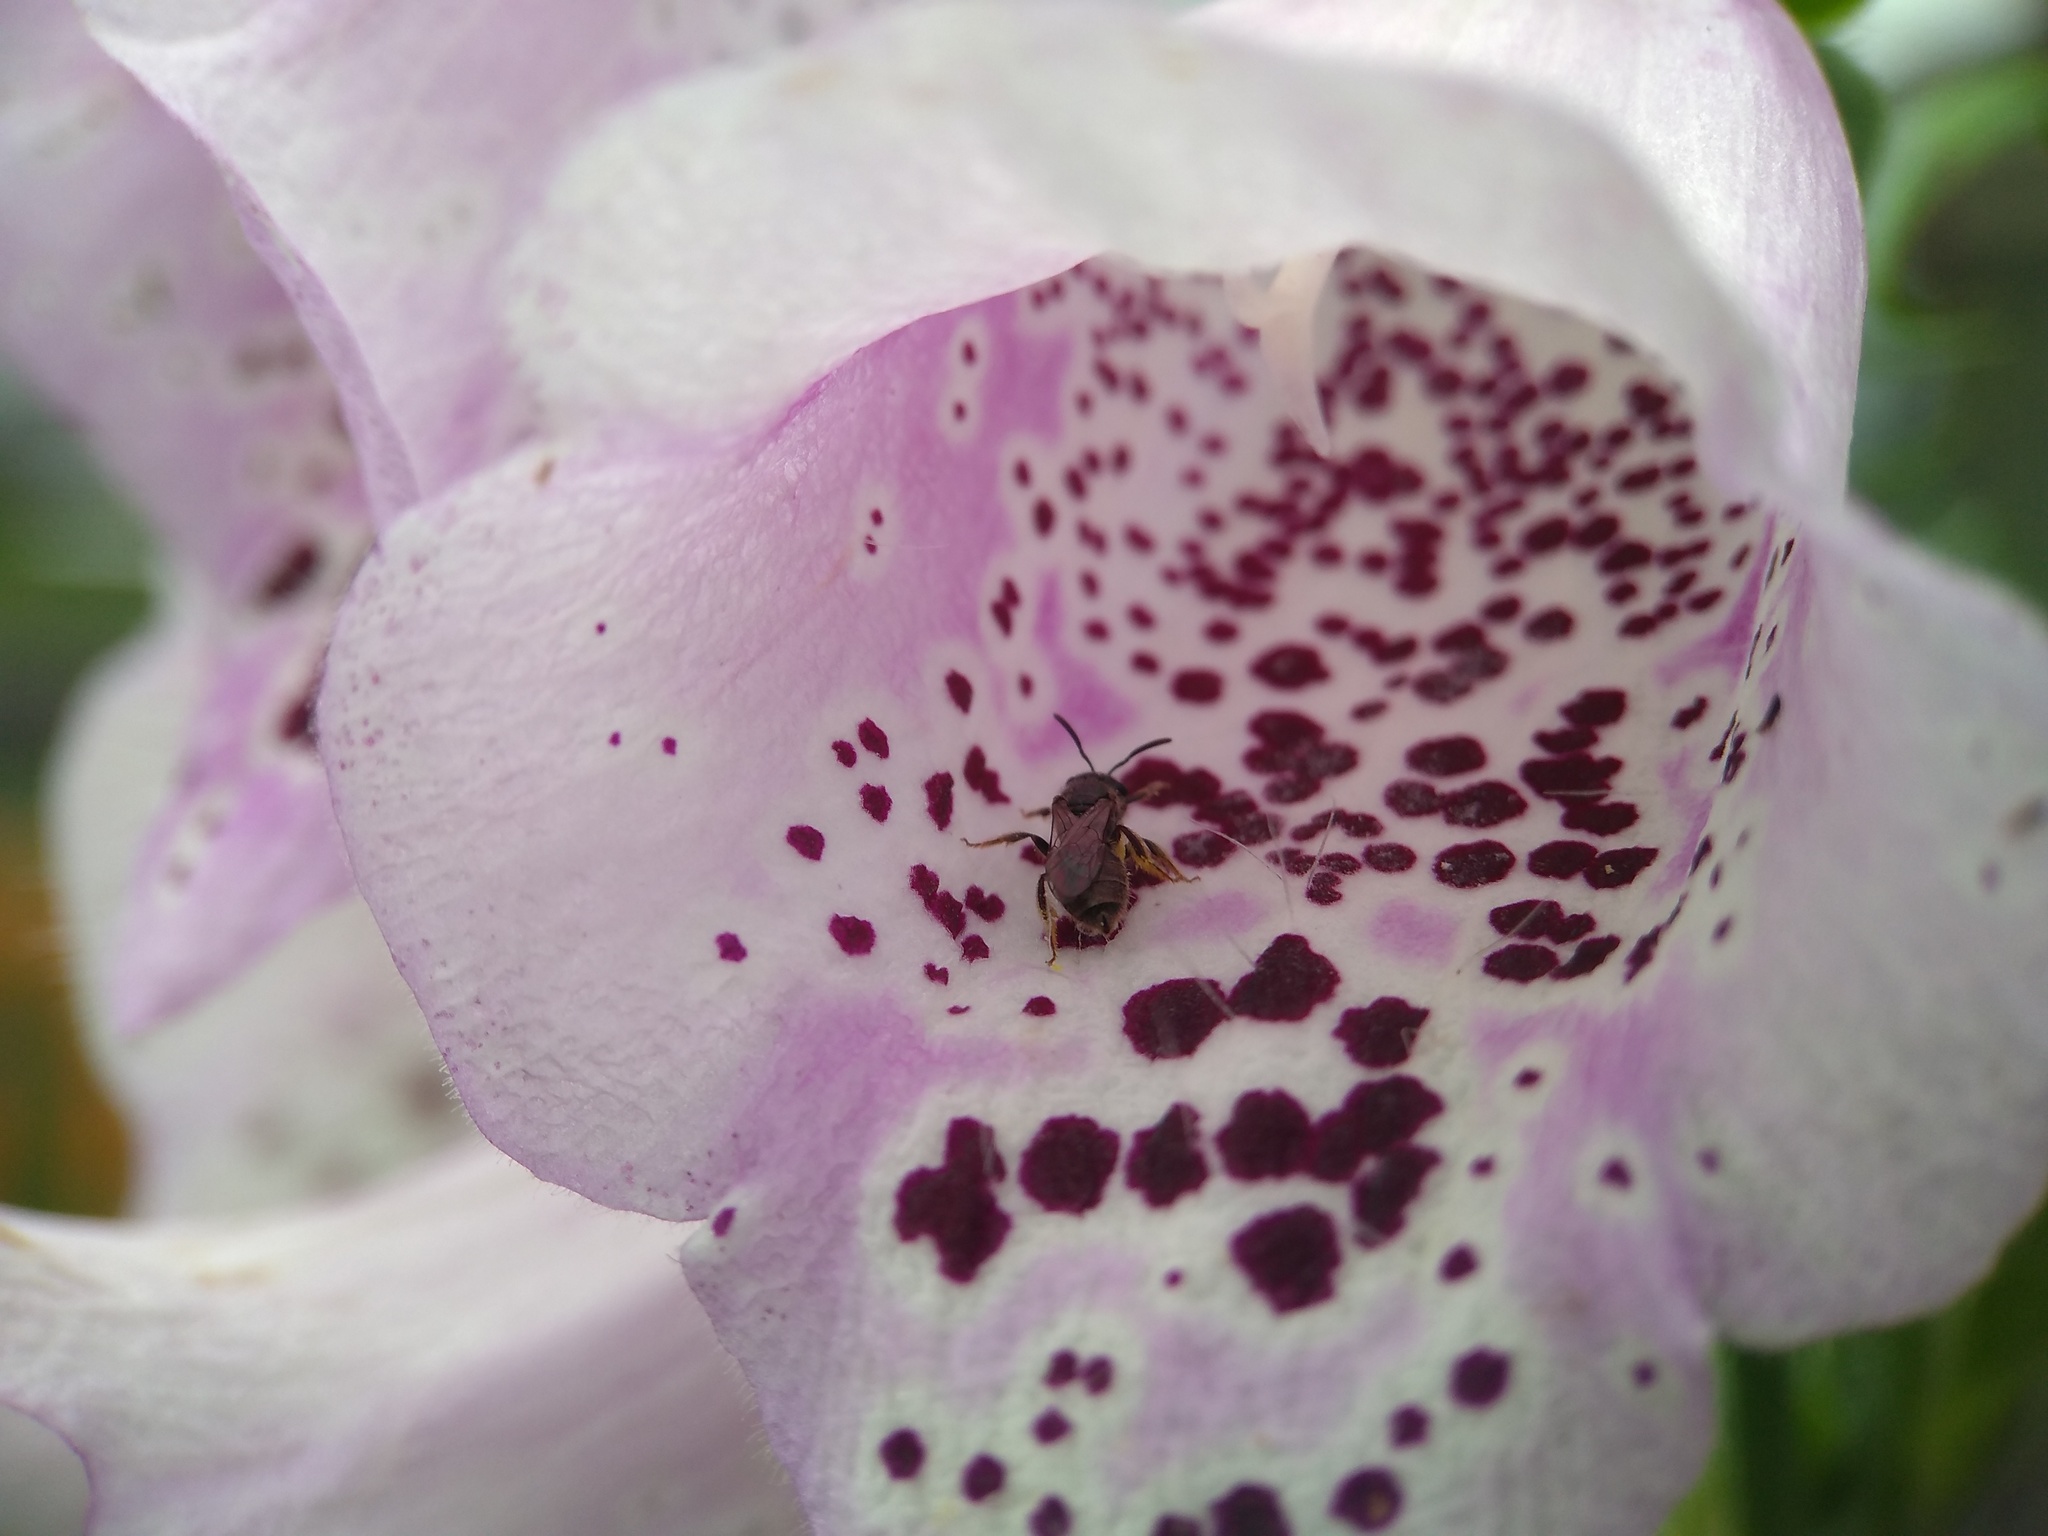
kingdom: Animalia
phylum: Arthropoda
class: Insecta
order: Hymenoptera
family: Halictidae
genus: Dialictus
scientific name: Dialictus
